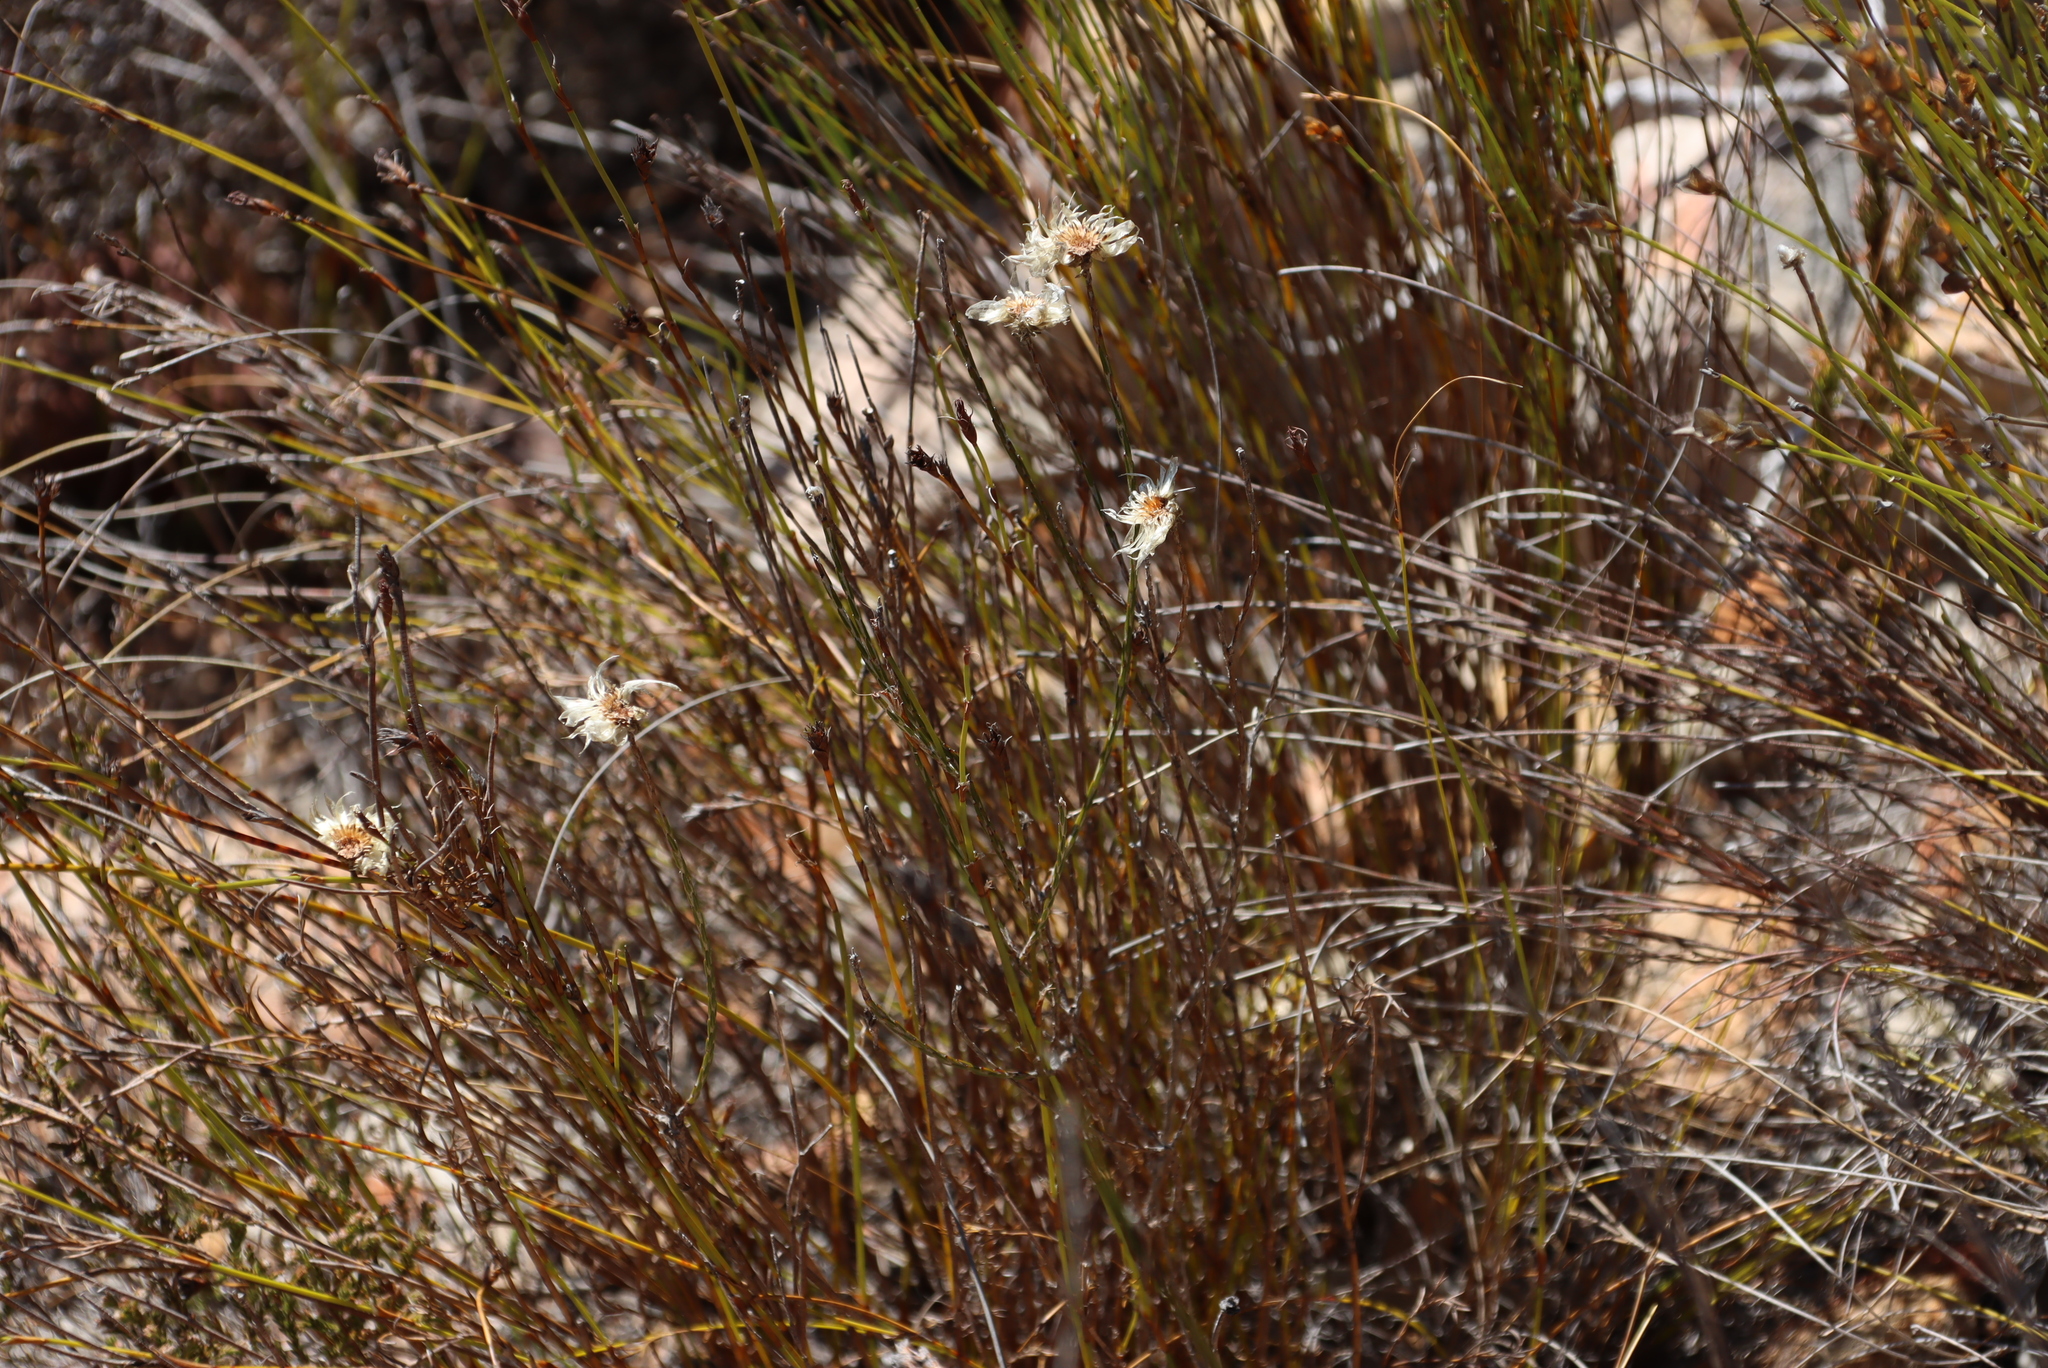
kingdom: Plantae
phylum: Tracheophyta
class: Magnoliopsida
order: Asterales
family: Asteraceae
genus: Edmondia
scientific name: Edmondia sesamoides
